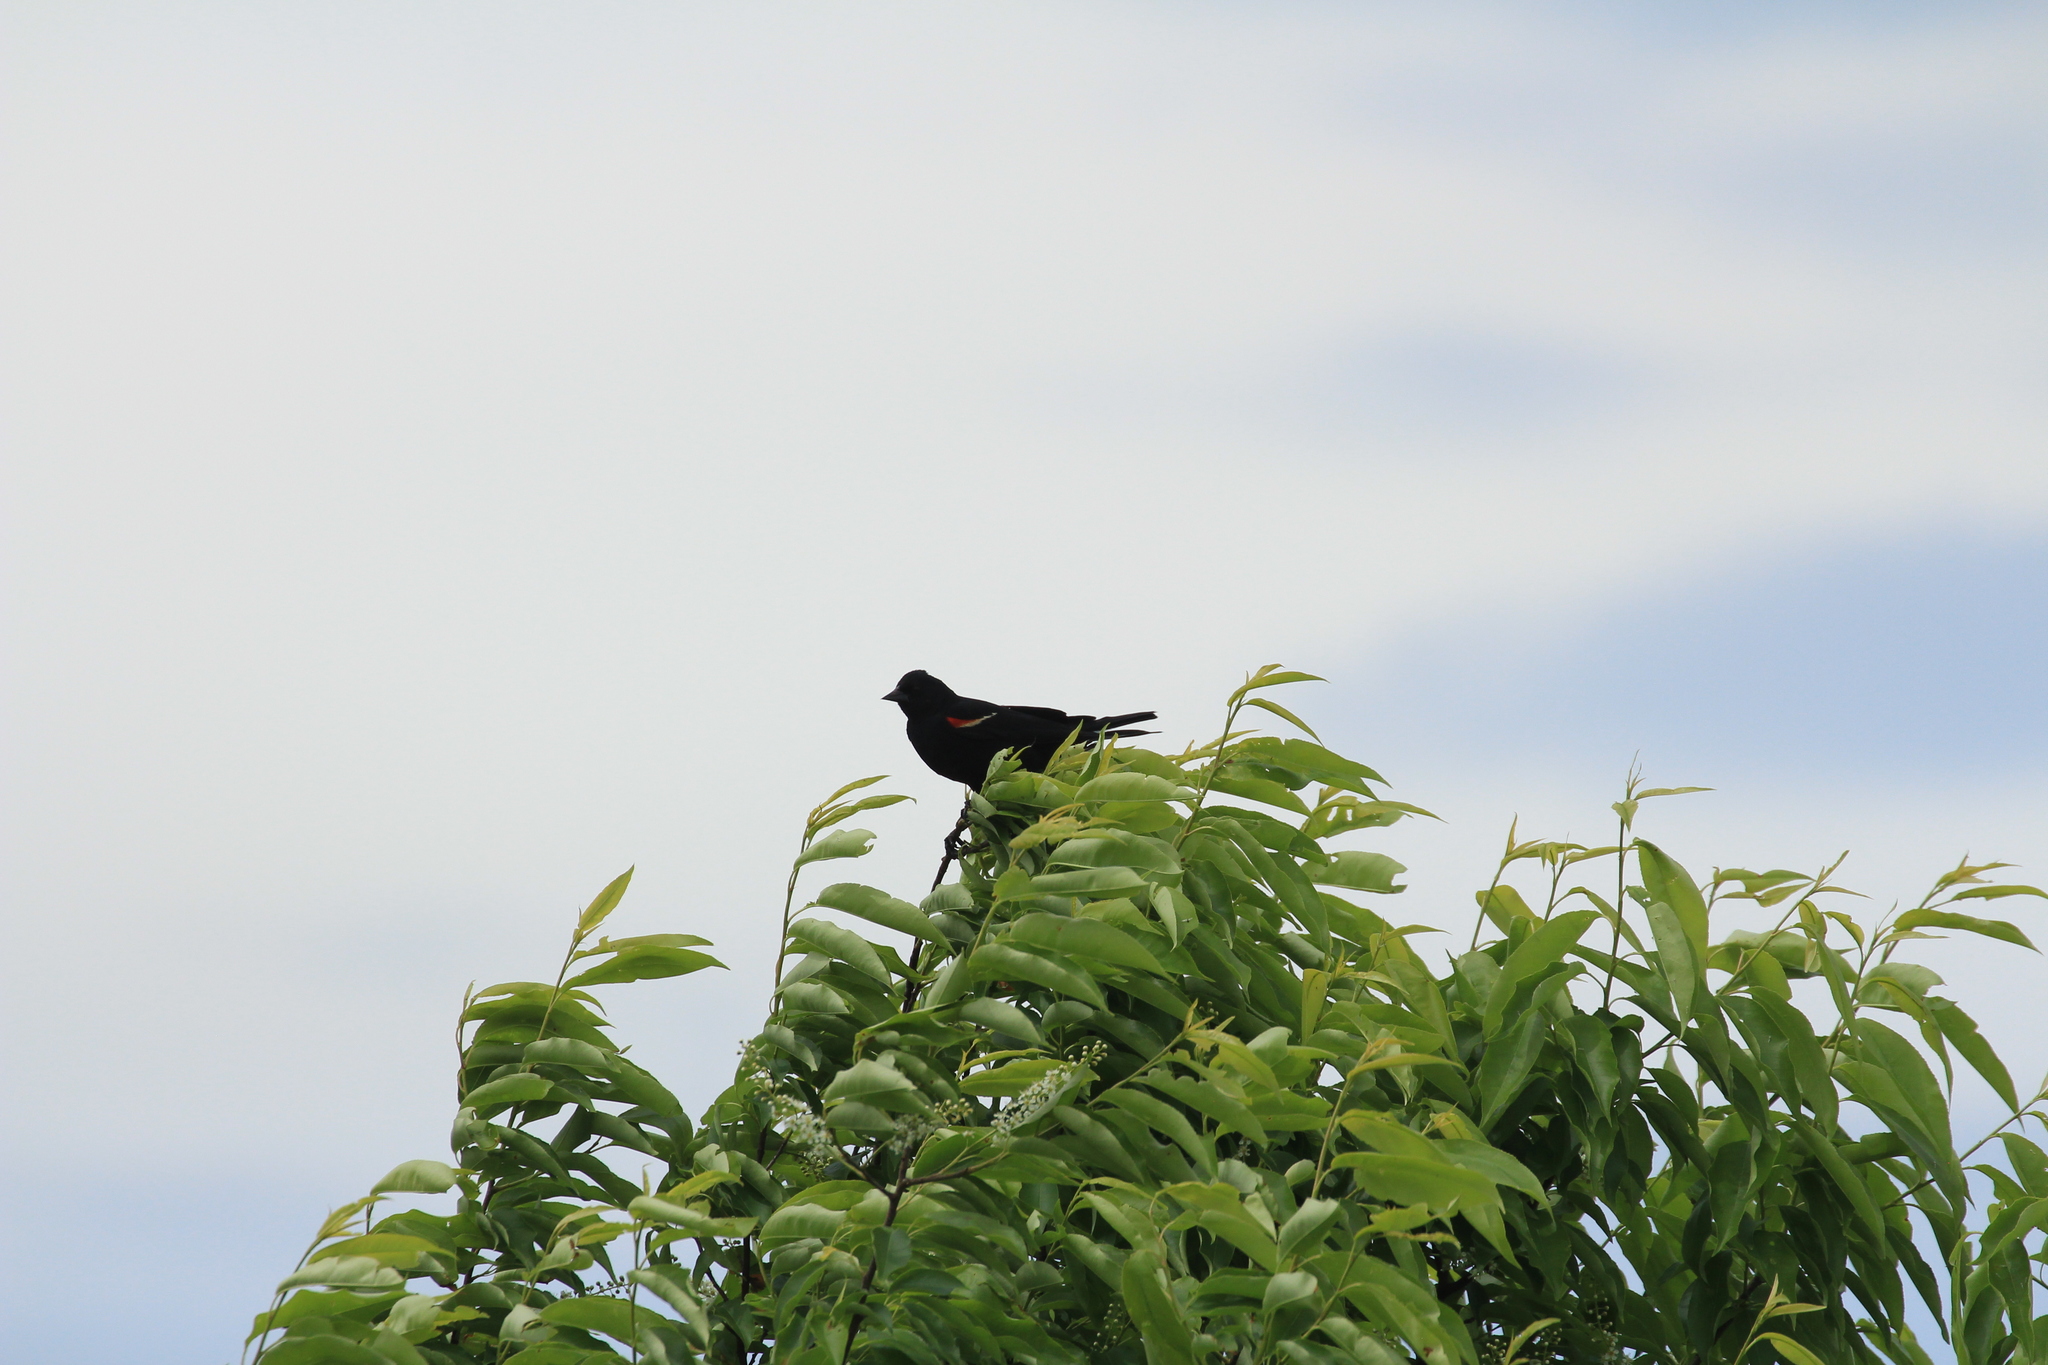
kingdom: Animalia
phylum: Chordata
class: Aves
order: Passeriformes
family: Icteridae
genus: Agelaius
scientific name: Agelaius phoeniceus
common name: Red-winged blackbird
